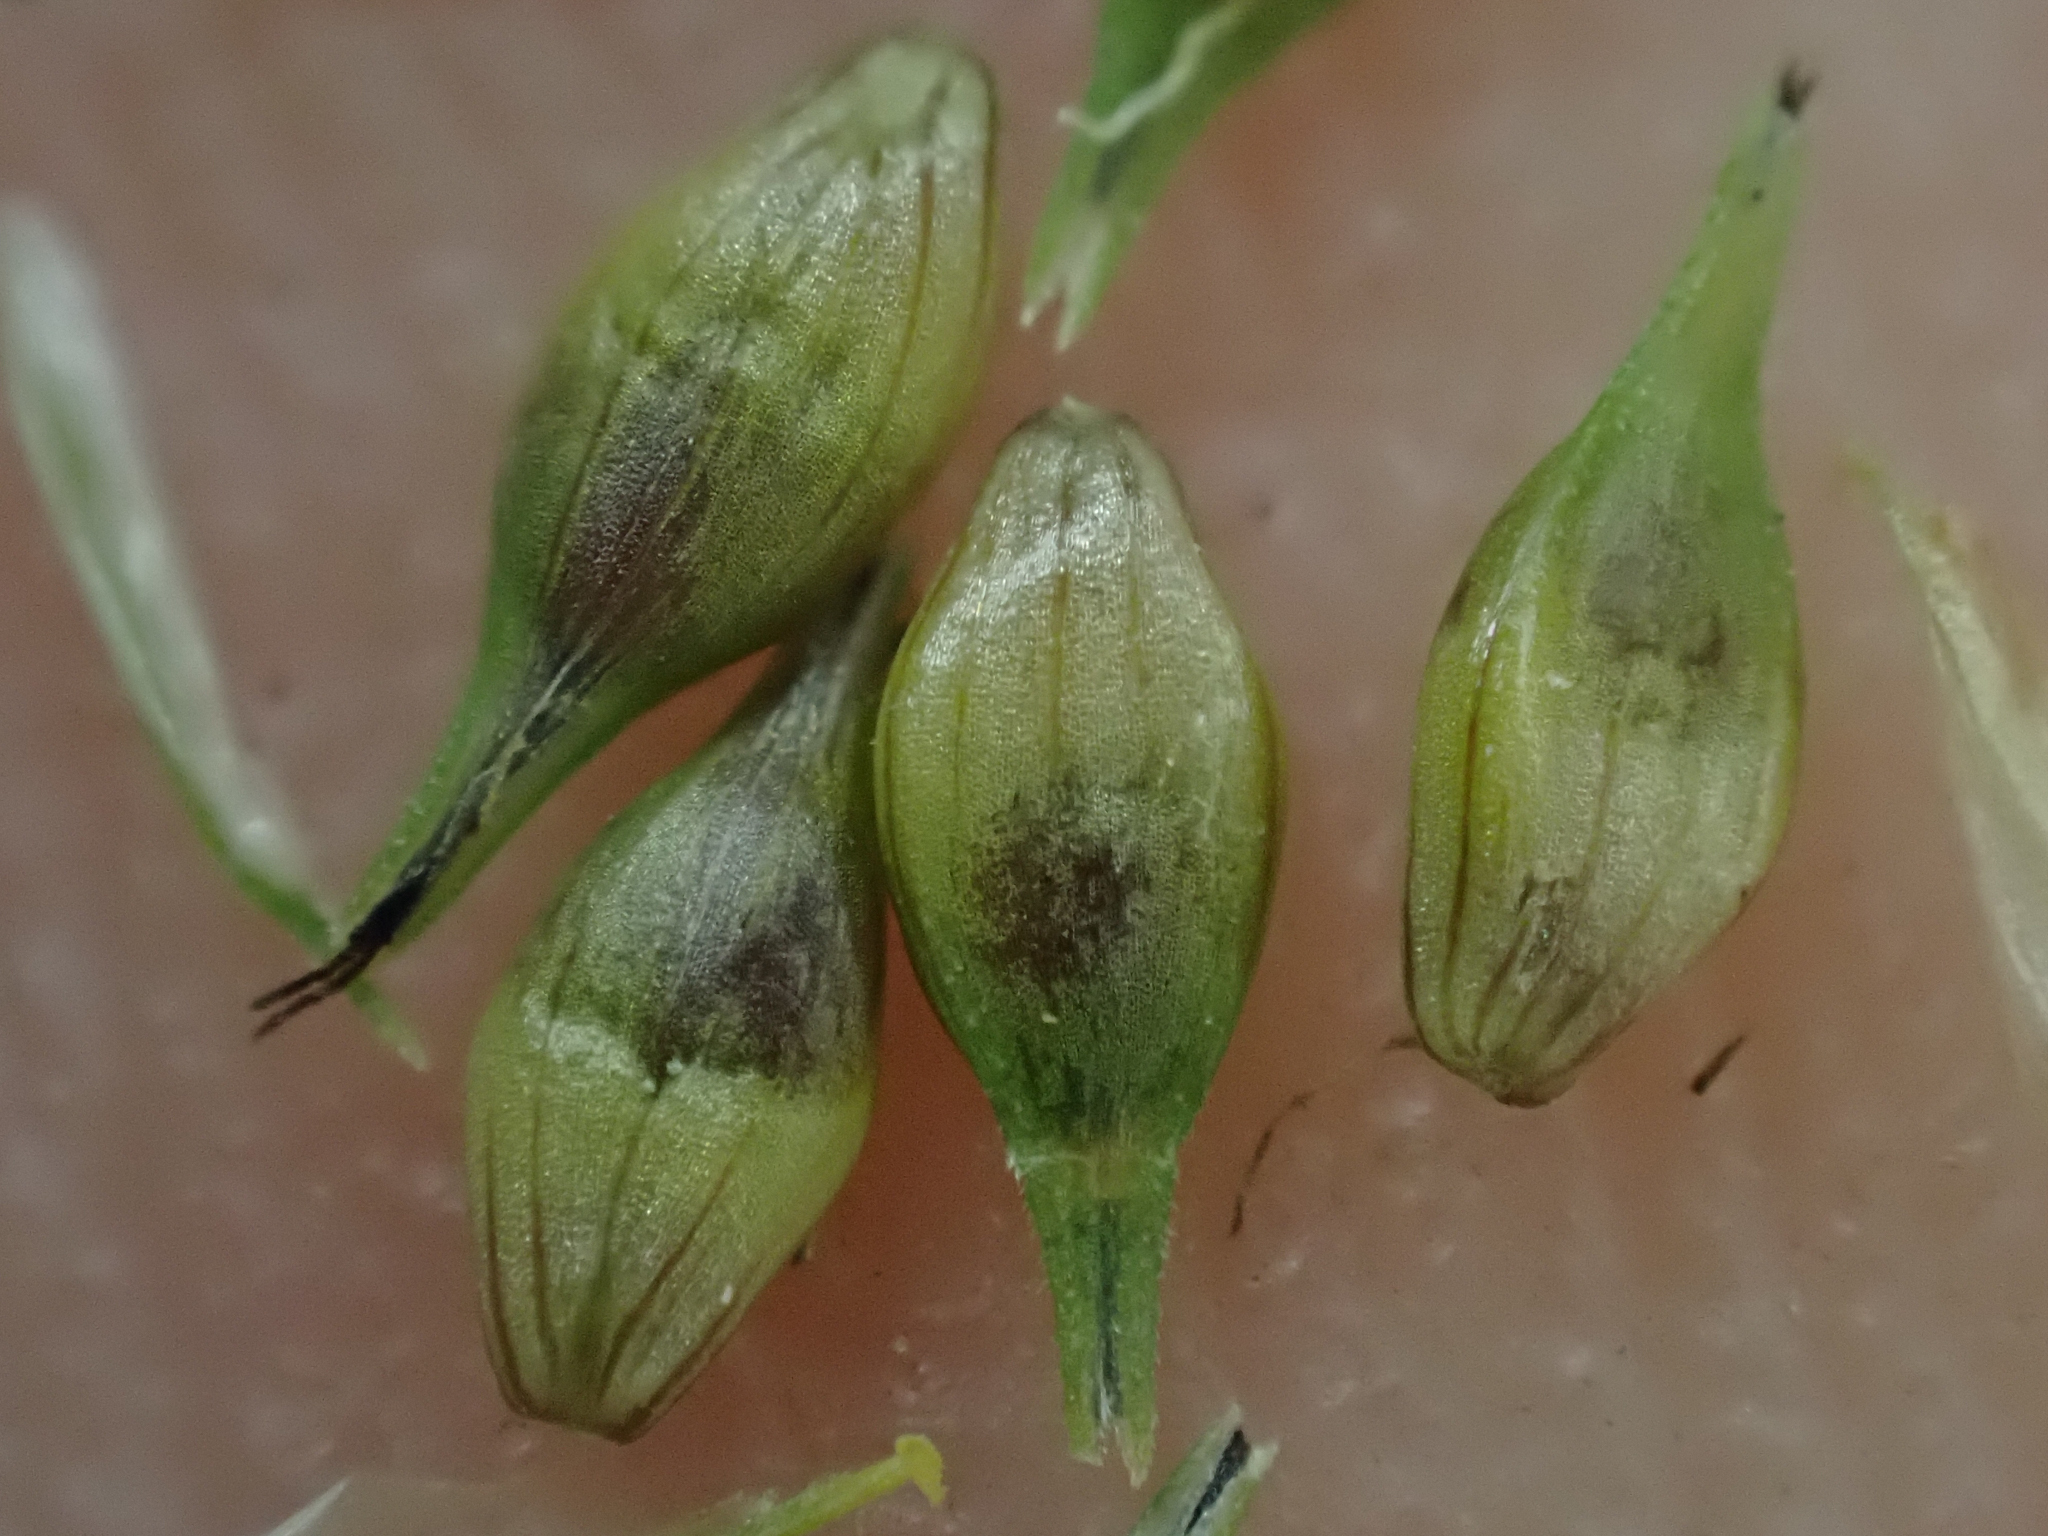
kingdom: Plantae
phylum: Tracheophyta
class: Liliopsida
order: Poales
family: Cyperaceae
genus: Carex
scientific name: Carex leptopoda
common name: Short-scale sedge
